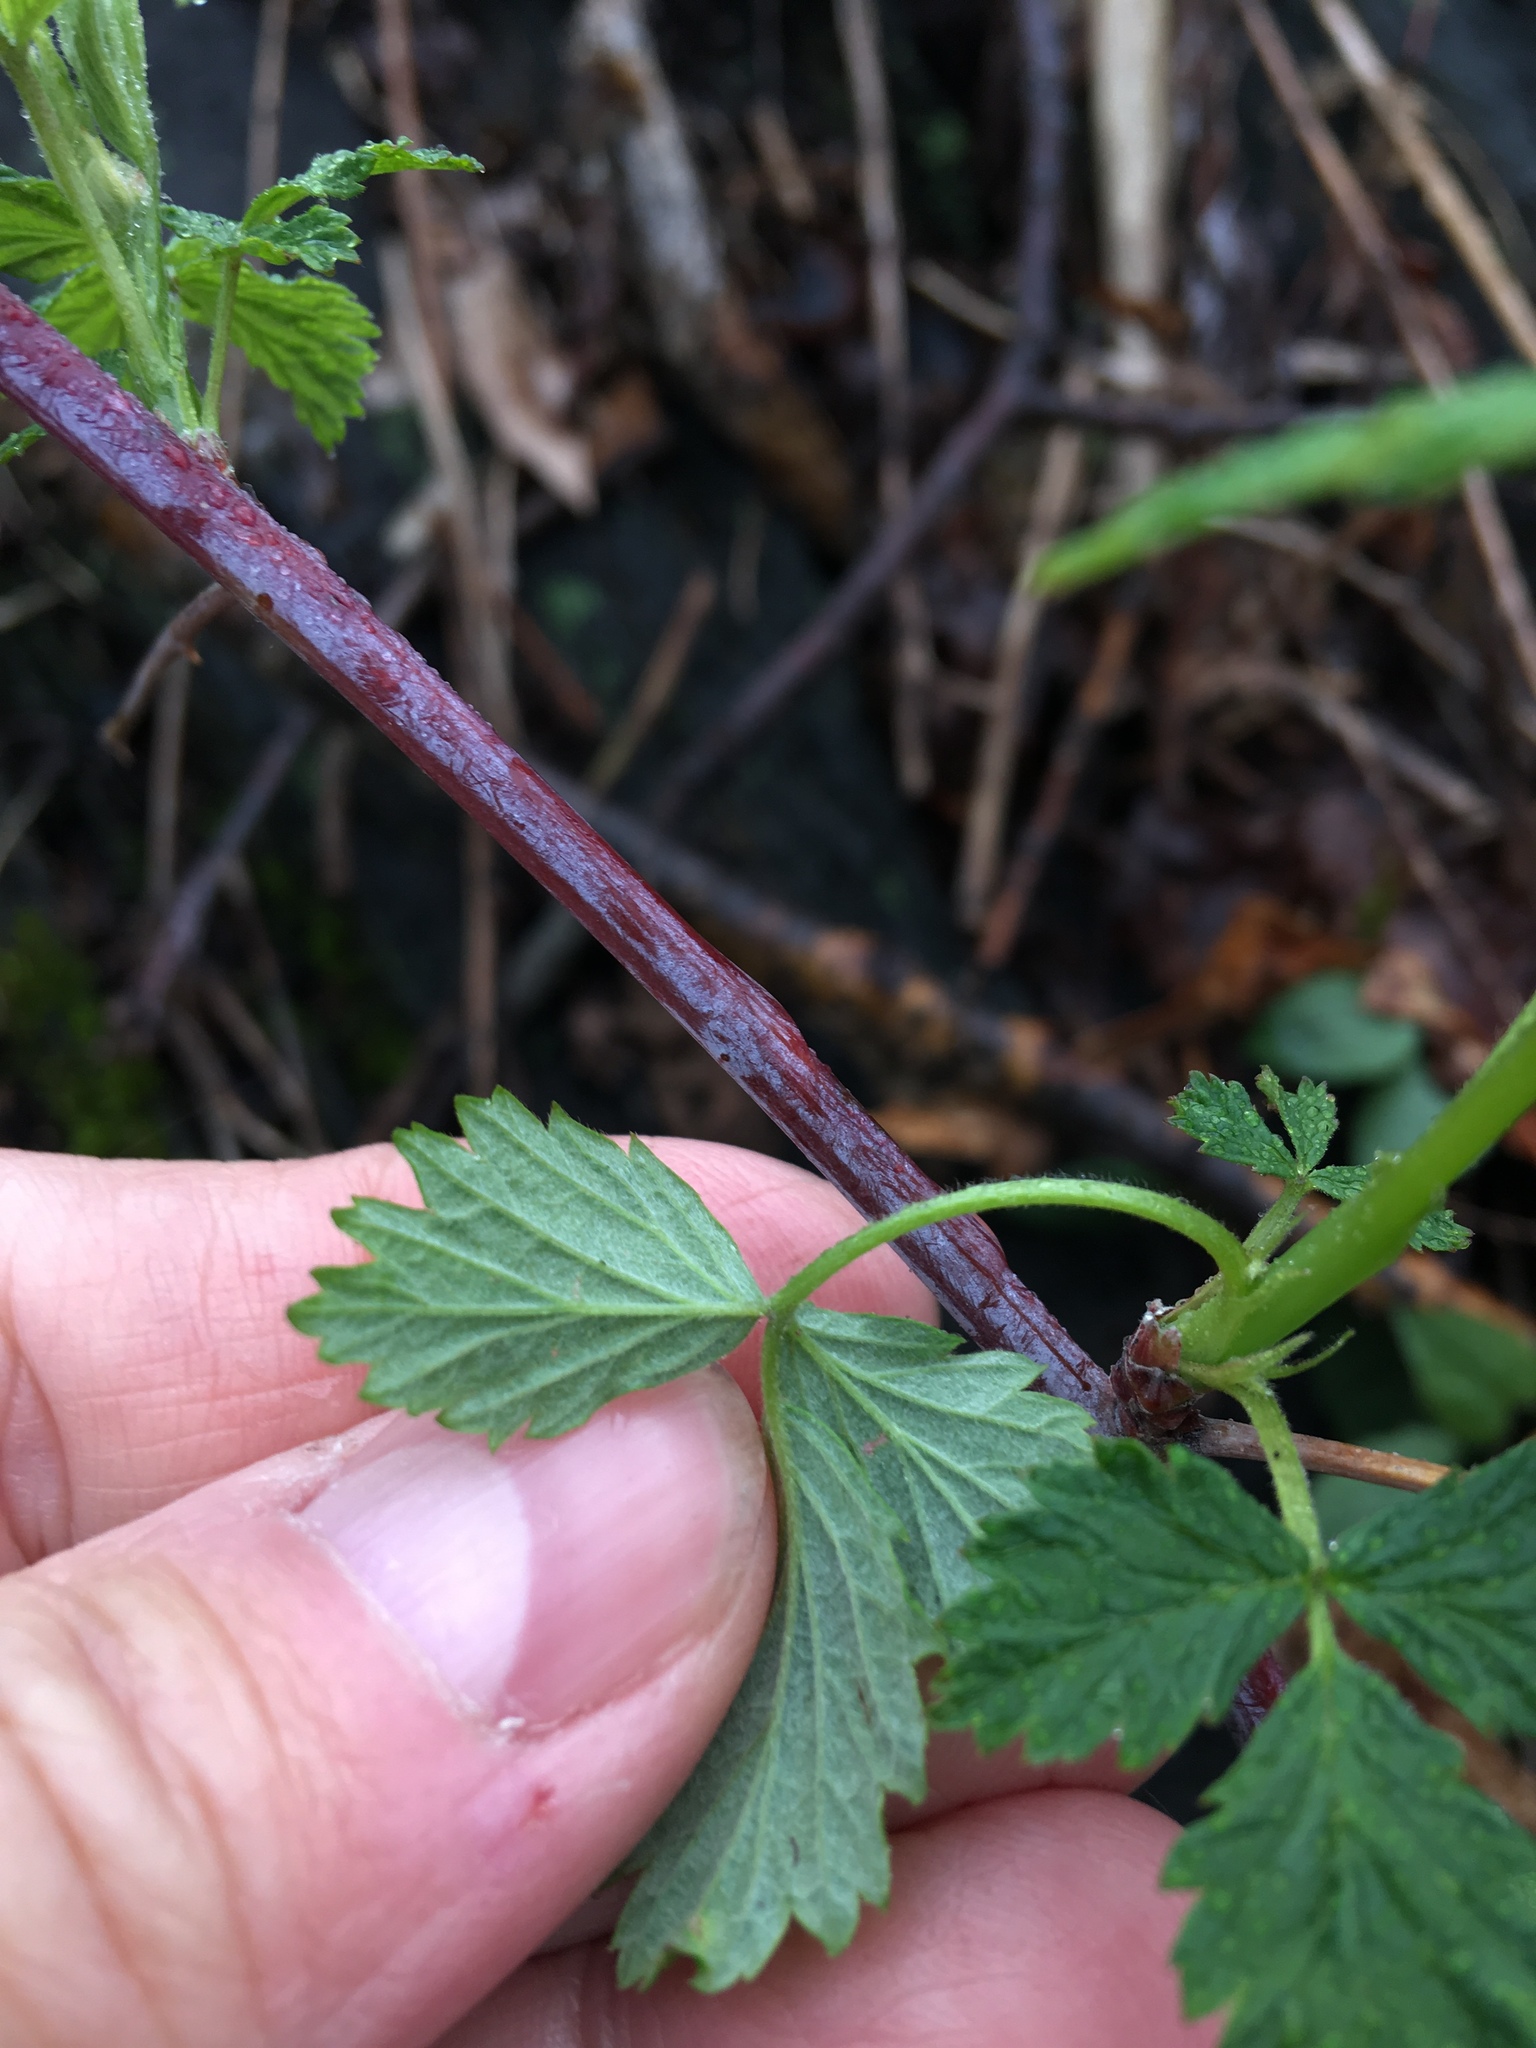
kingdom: Plantae
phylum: Tracheophyta
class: Magnoliopsida
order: Rosales
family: Rosaceae
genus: Rubus
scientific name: Rubus occidentalis
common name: Black raspberry
